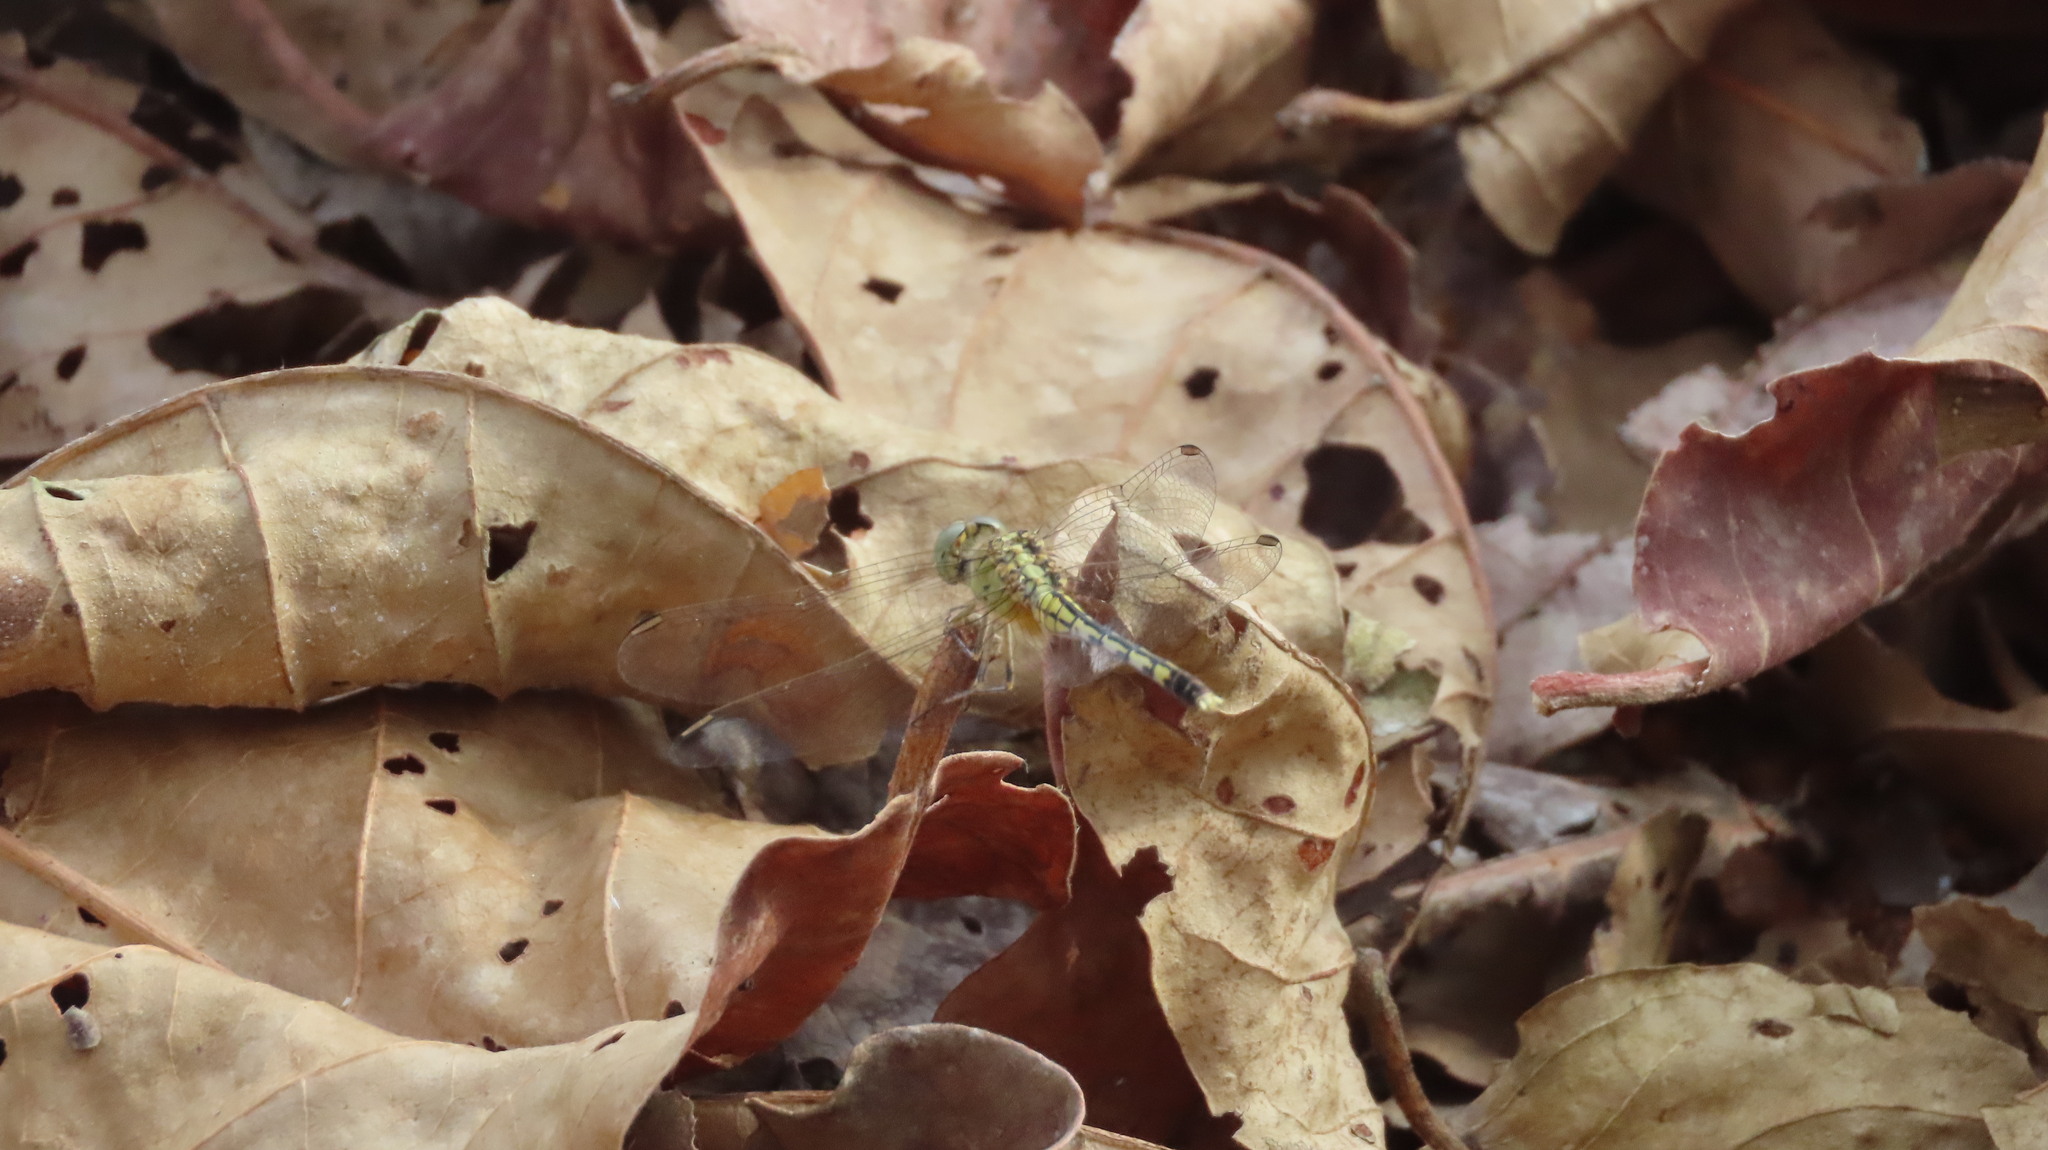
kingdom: Animalia
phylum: Arthropoda
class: Insecta
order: Odonata
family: Libellulidae
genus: Diplacodes
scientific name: Diplacodes trivialis
